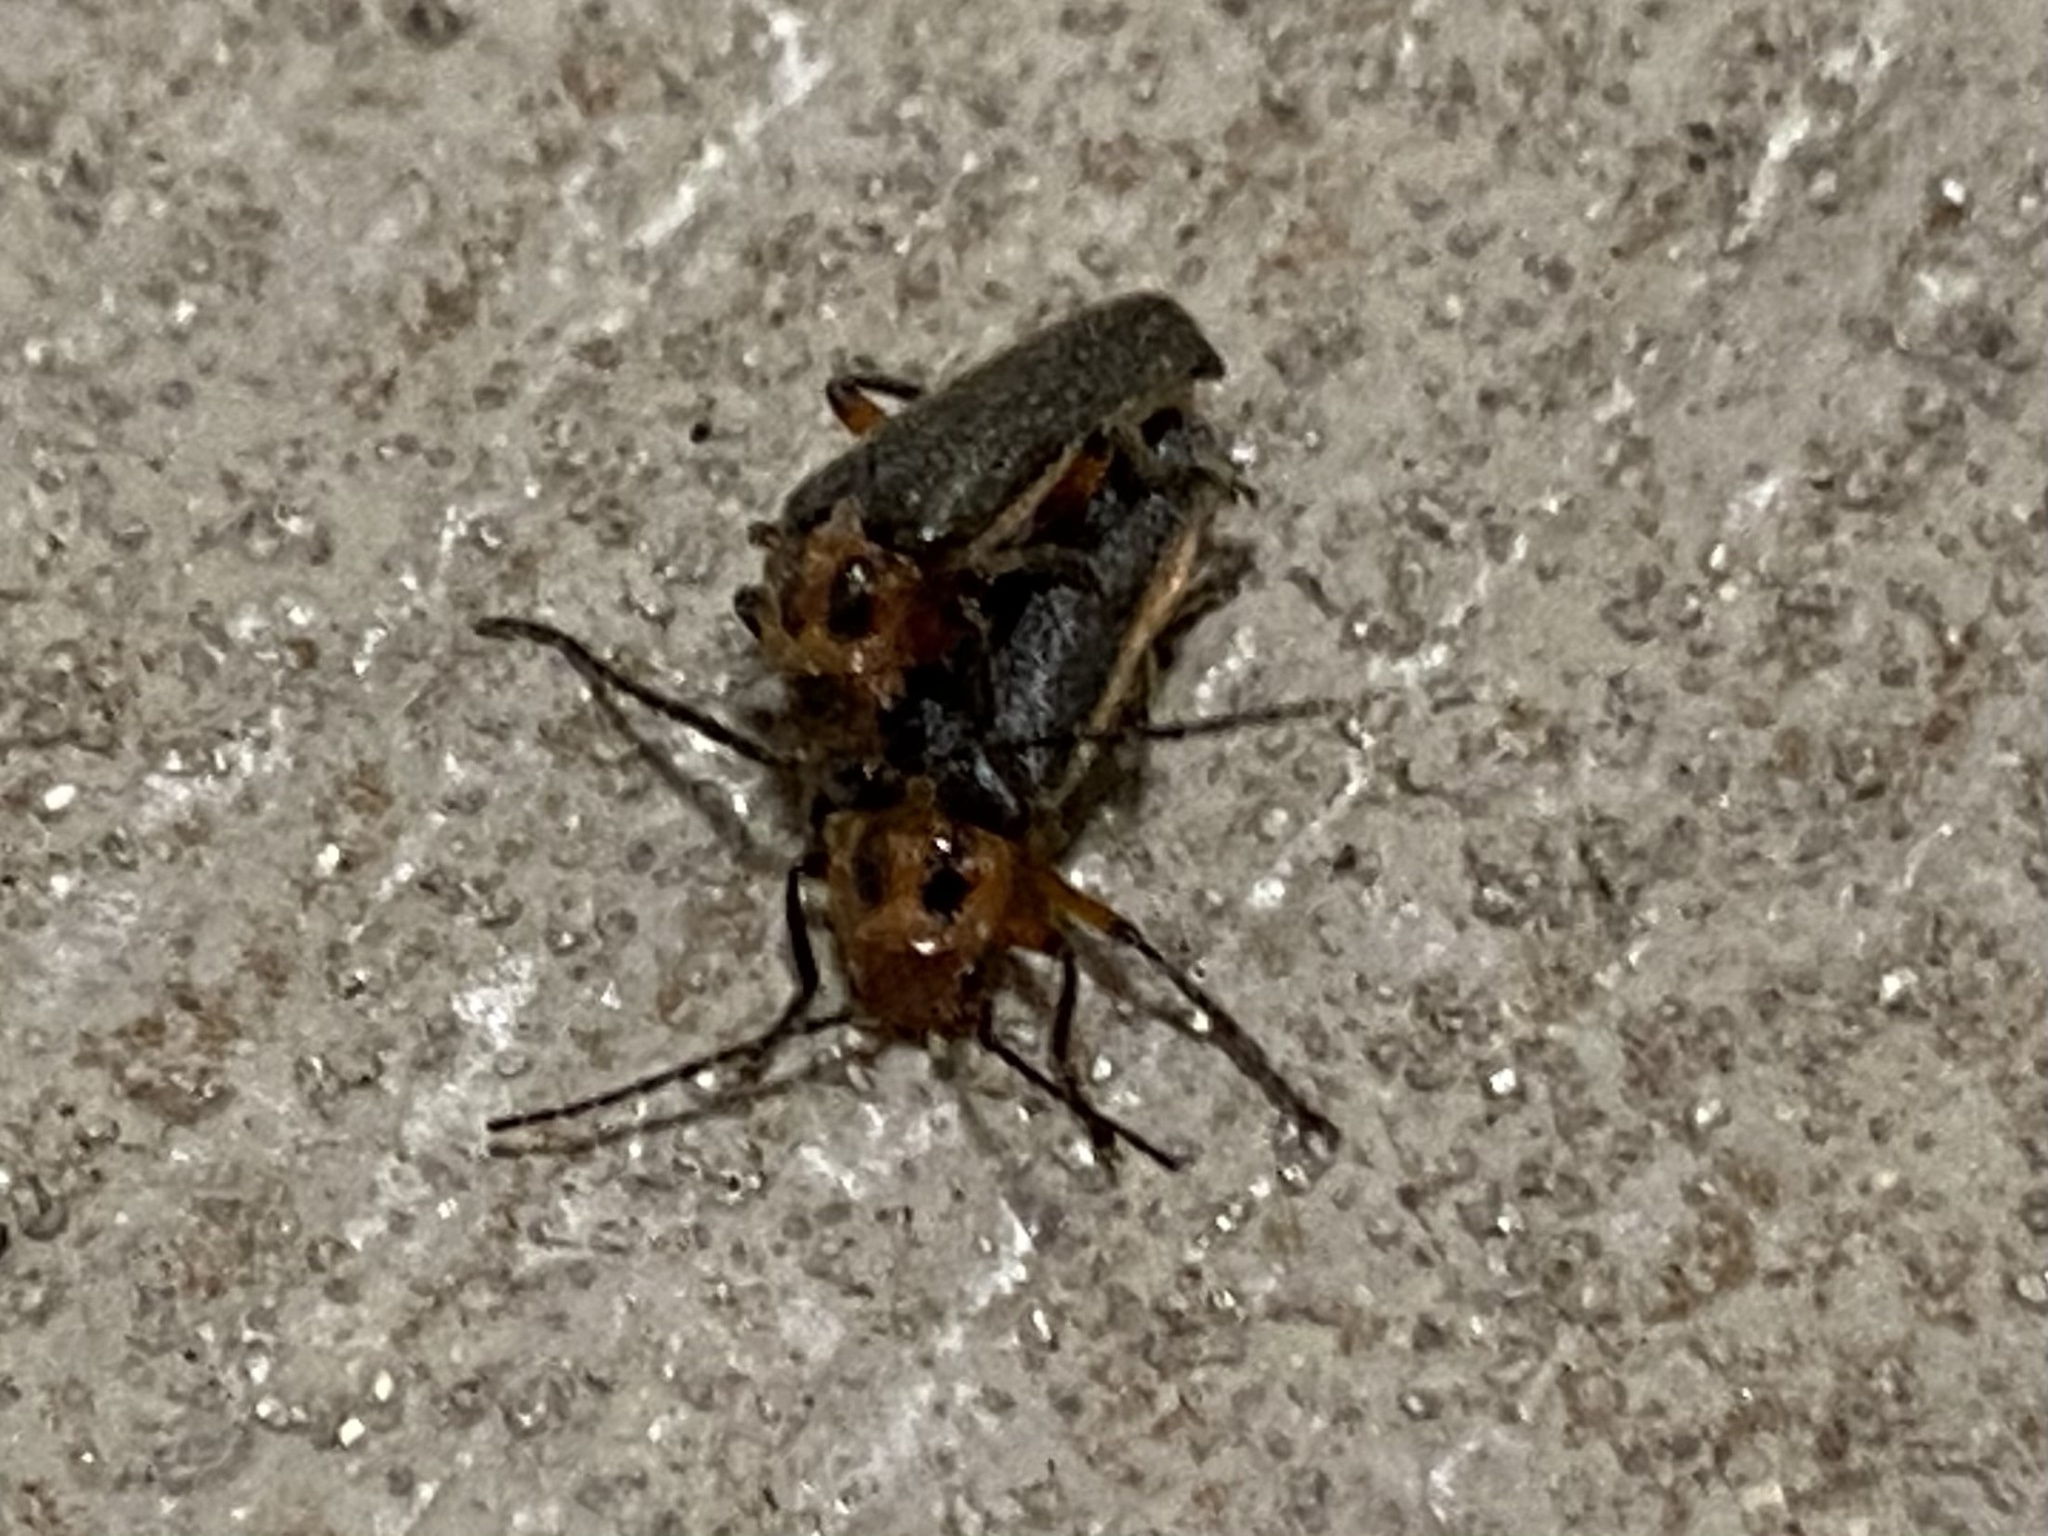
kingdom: Animalia
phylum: Arthropoda
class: Insecta
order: Coleoptera
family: Cantharidae
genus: Atalantycha
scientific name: Atalantycha bilineata
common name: Two-lined leatherwing
